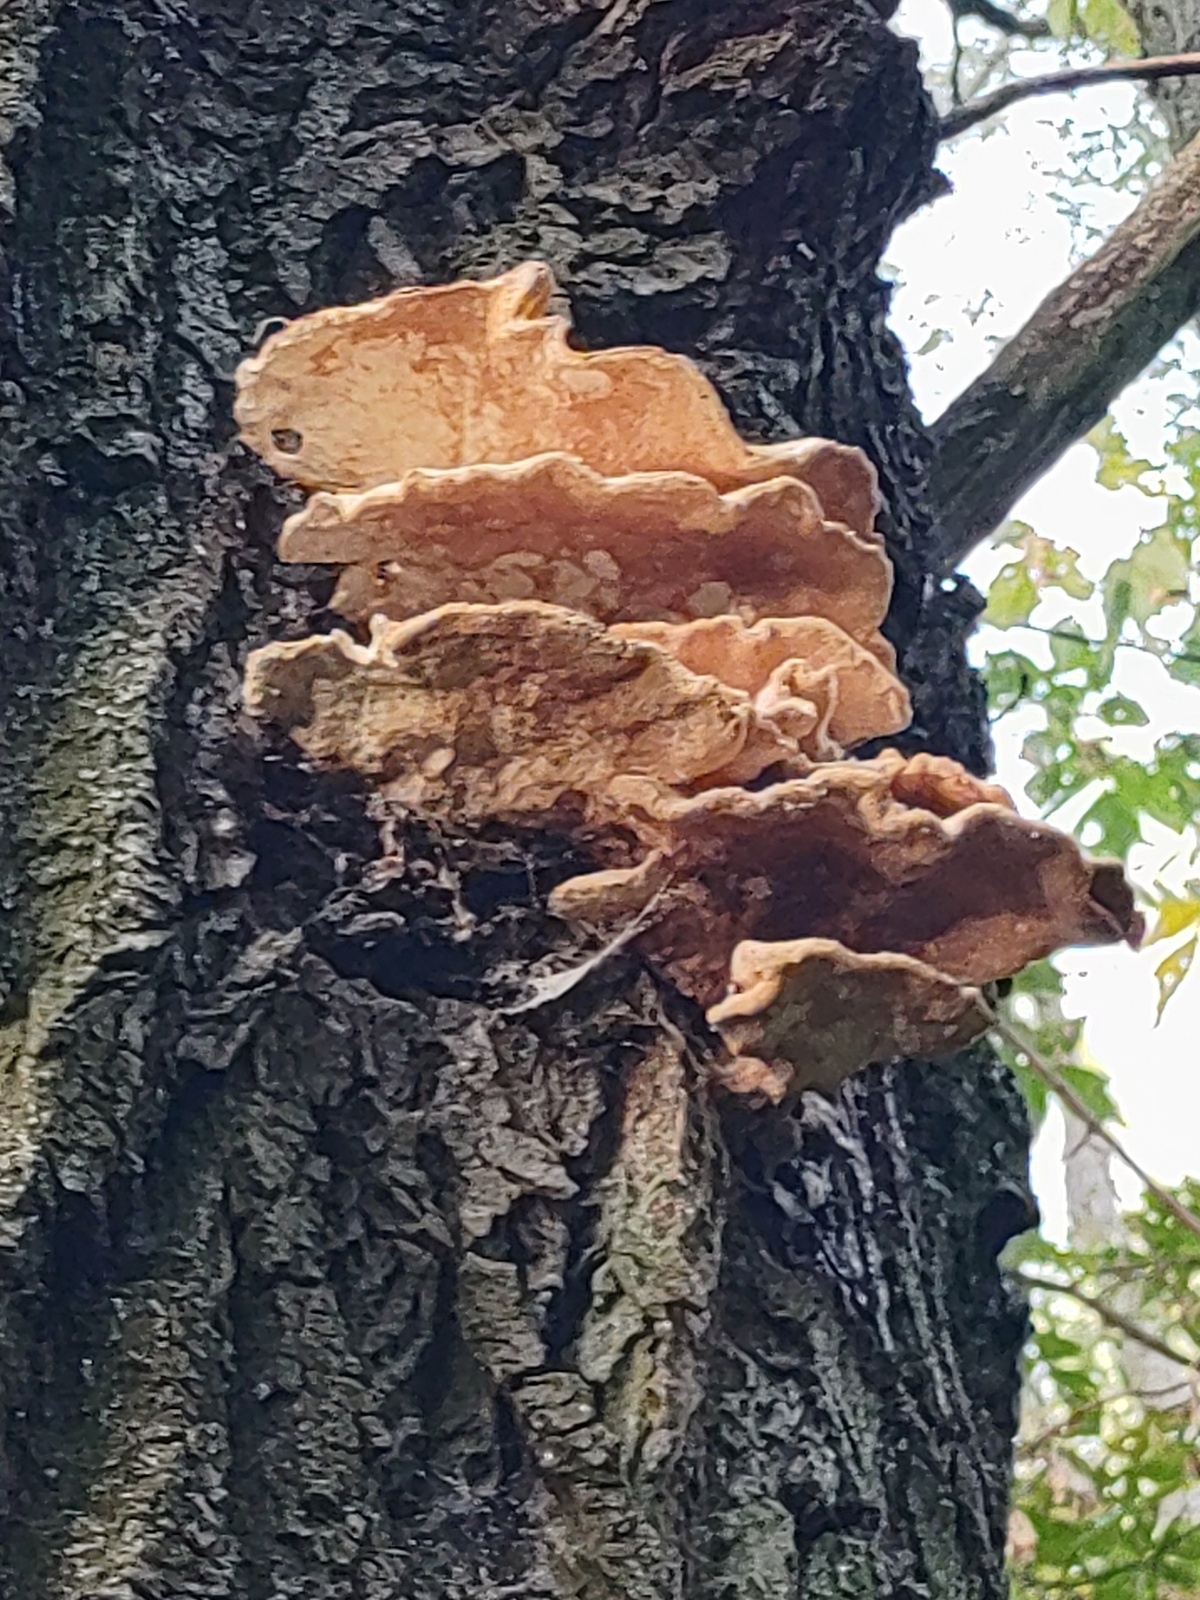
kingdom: Fungi
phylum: Basidiomycota
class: Agaricomycetes
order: Polyporales
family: Laetiporaceae
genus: Laetiporus
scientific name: Laetiporus sulphureus
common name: Chicken of the woods
